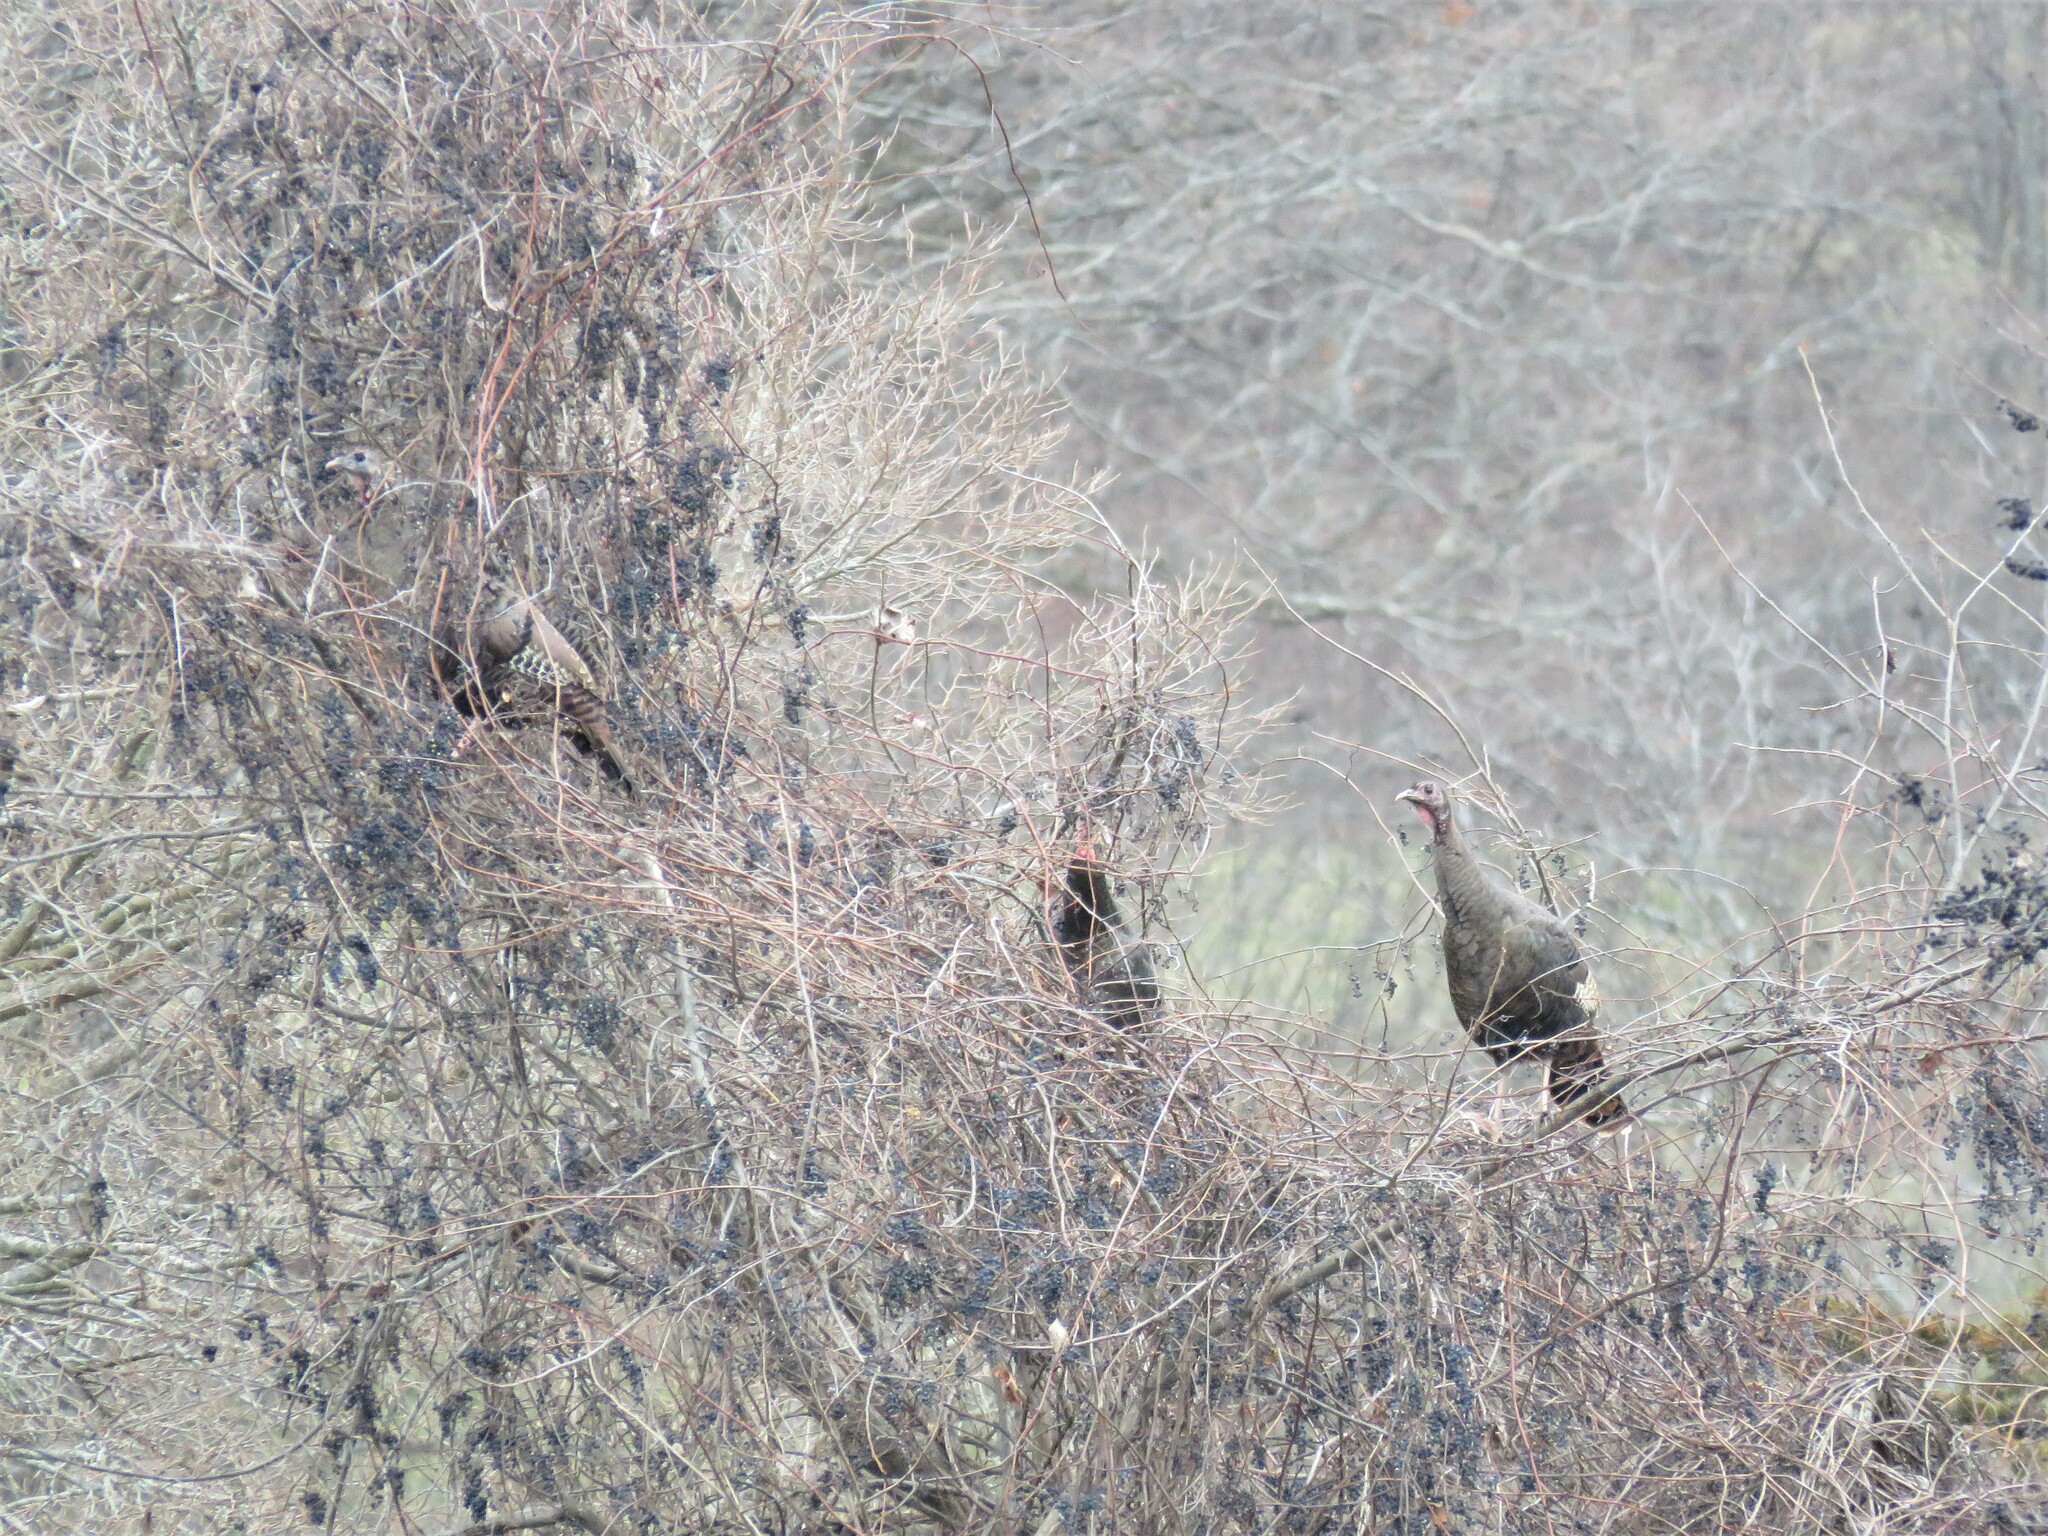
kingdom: Animalia
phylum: Chordata
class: Aves
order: Galliformes
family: Phasianidae
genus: Meleagris
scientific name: Meleagris gallopavo
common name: Wild turkey
